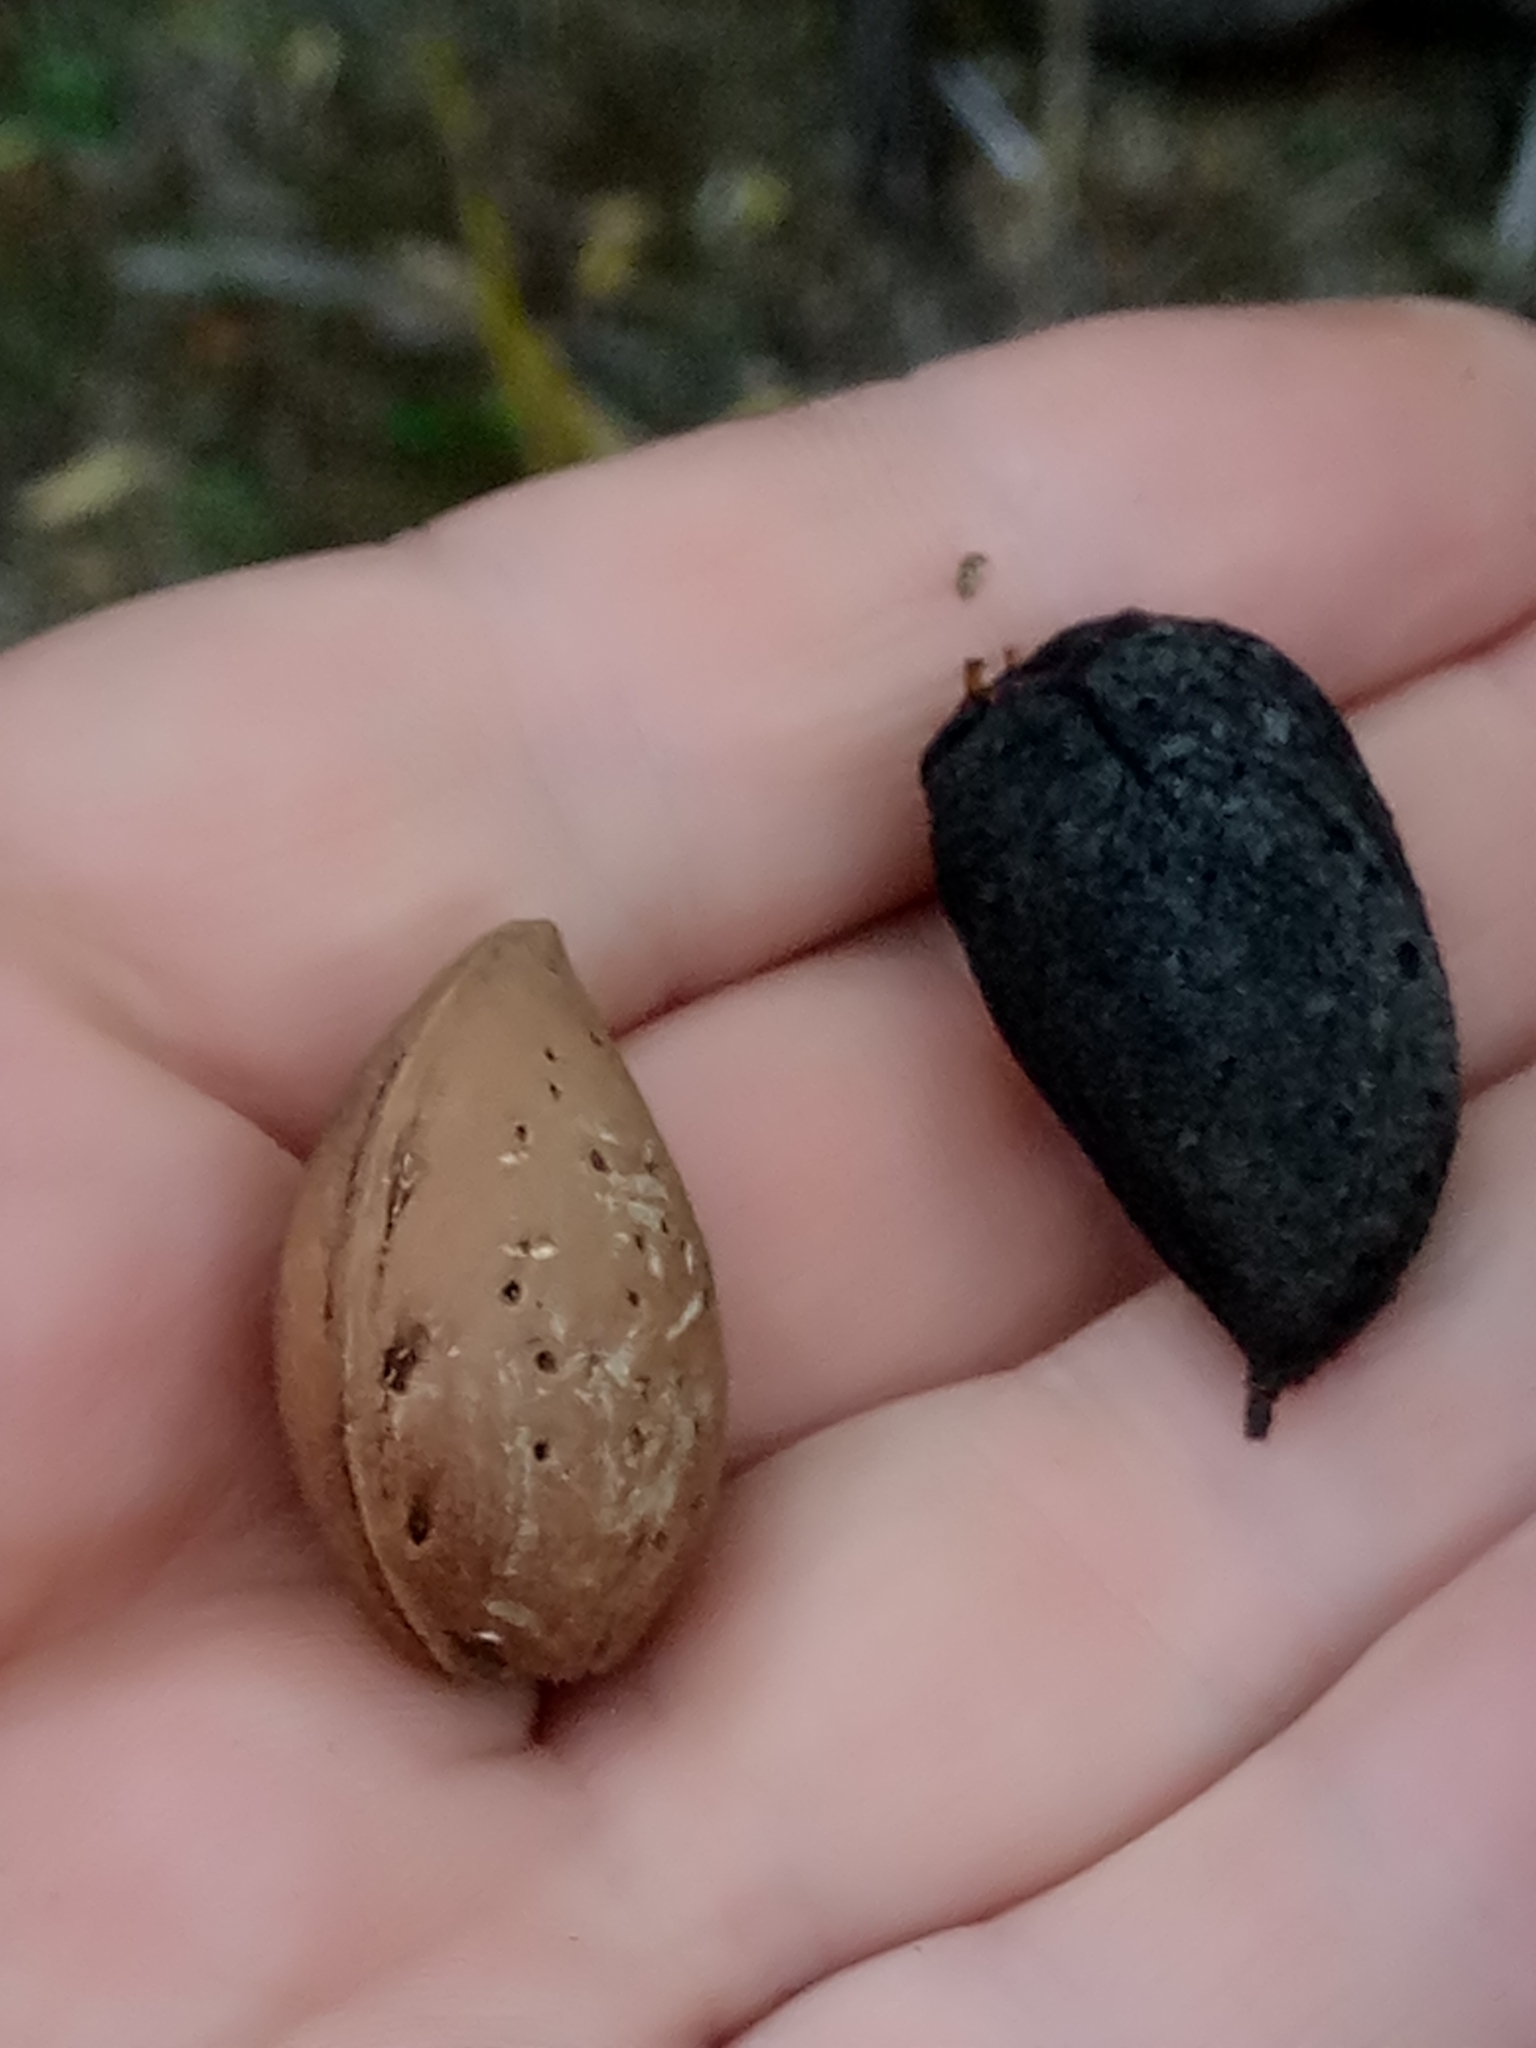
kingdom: Plantae
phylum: Tracheophyta
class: Magnoliopsida
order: Rosales
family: Rosaceae
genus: Prunus
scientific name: Prunus amygdalus
